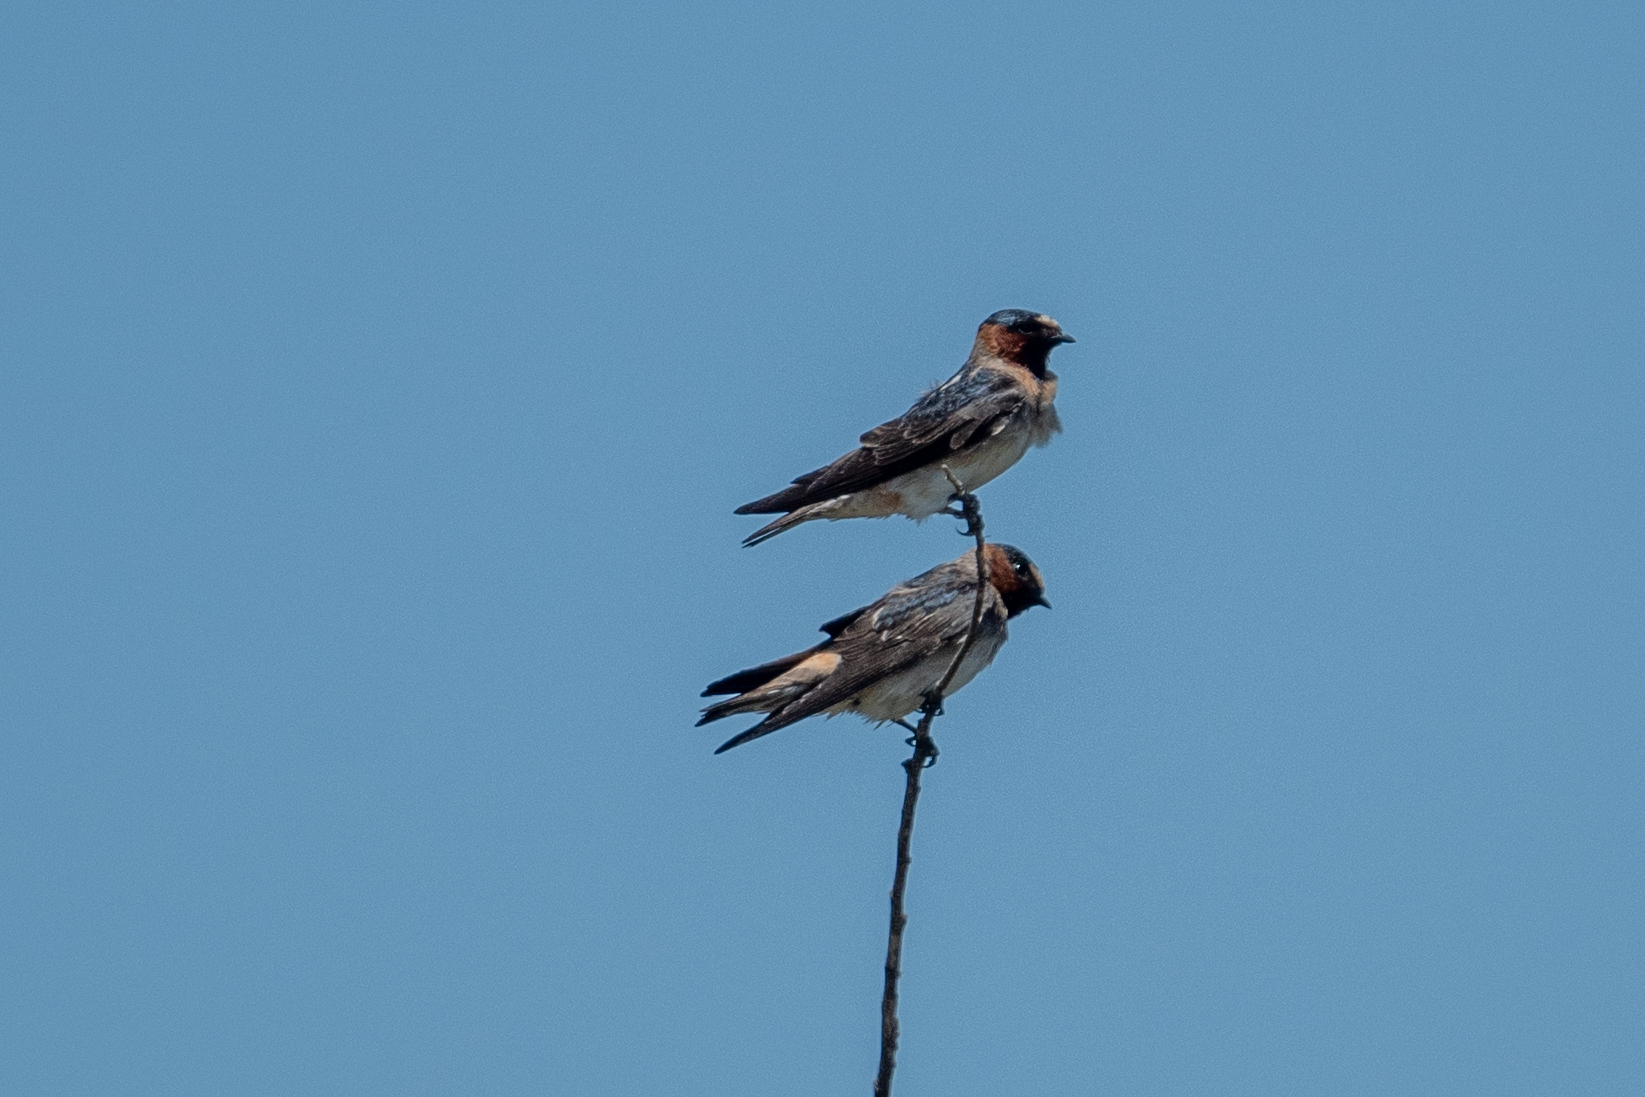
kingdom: Animalia
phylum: Chordata
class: Aves
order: Passeriformes
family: Hirundinidae
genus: Petrochelidon
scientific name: Petrochelidon pyrrhonota
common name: American cliff swallow
